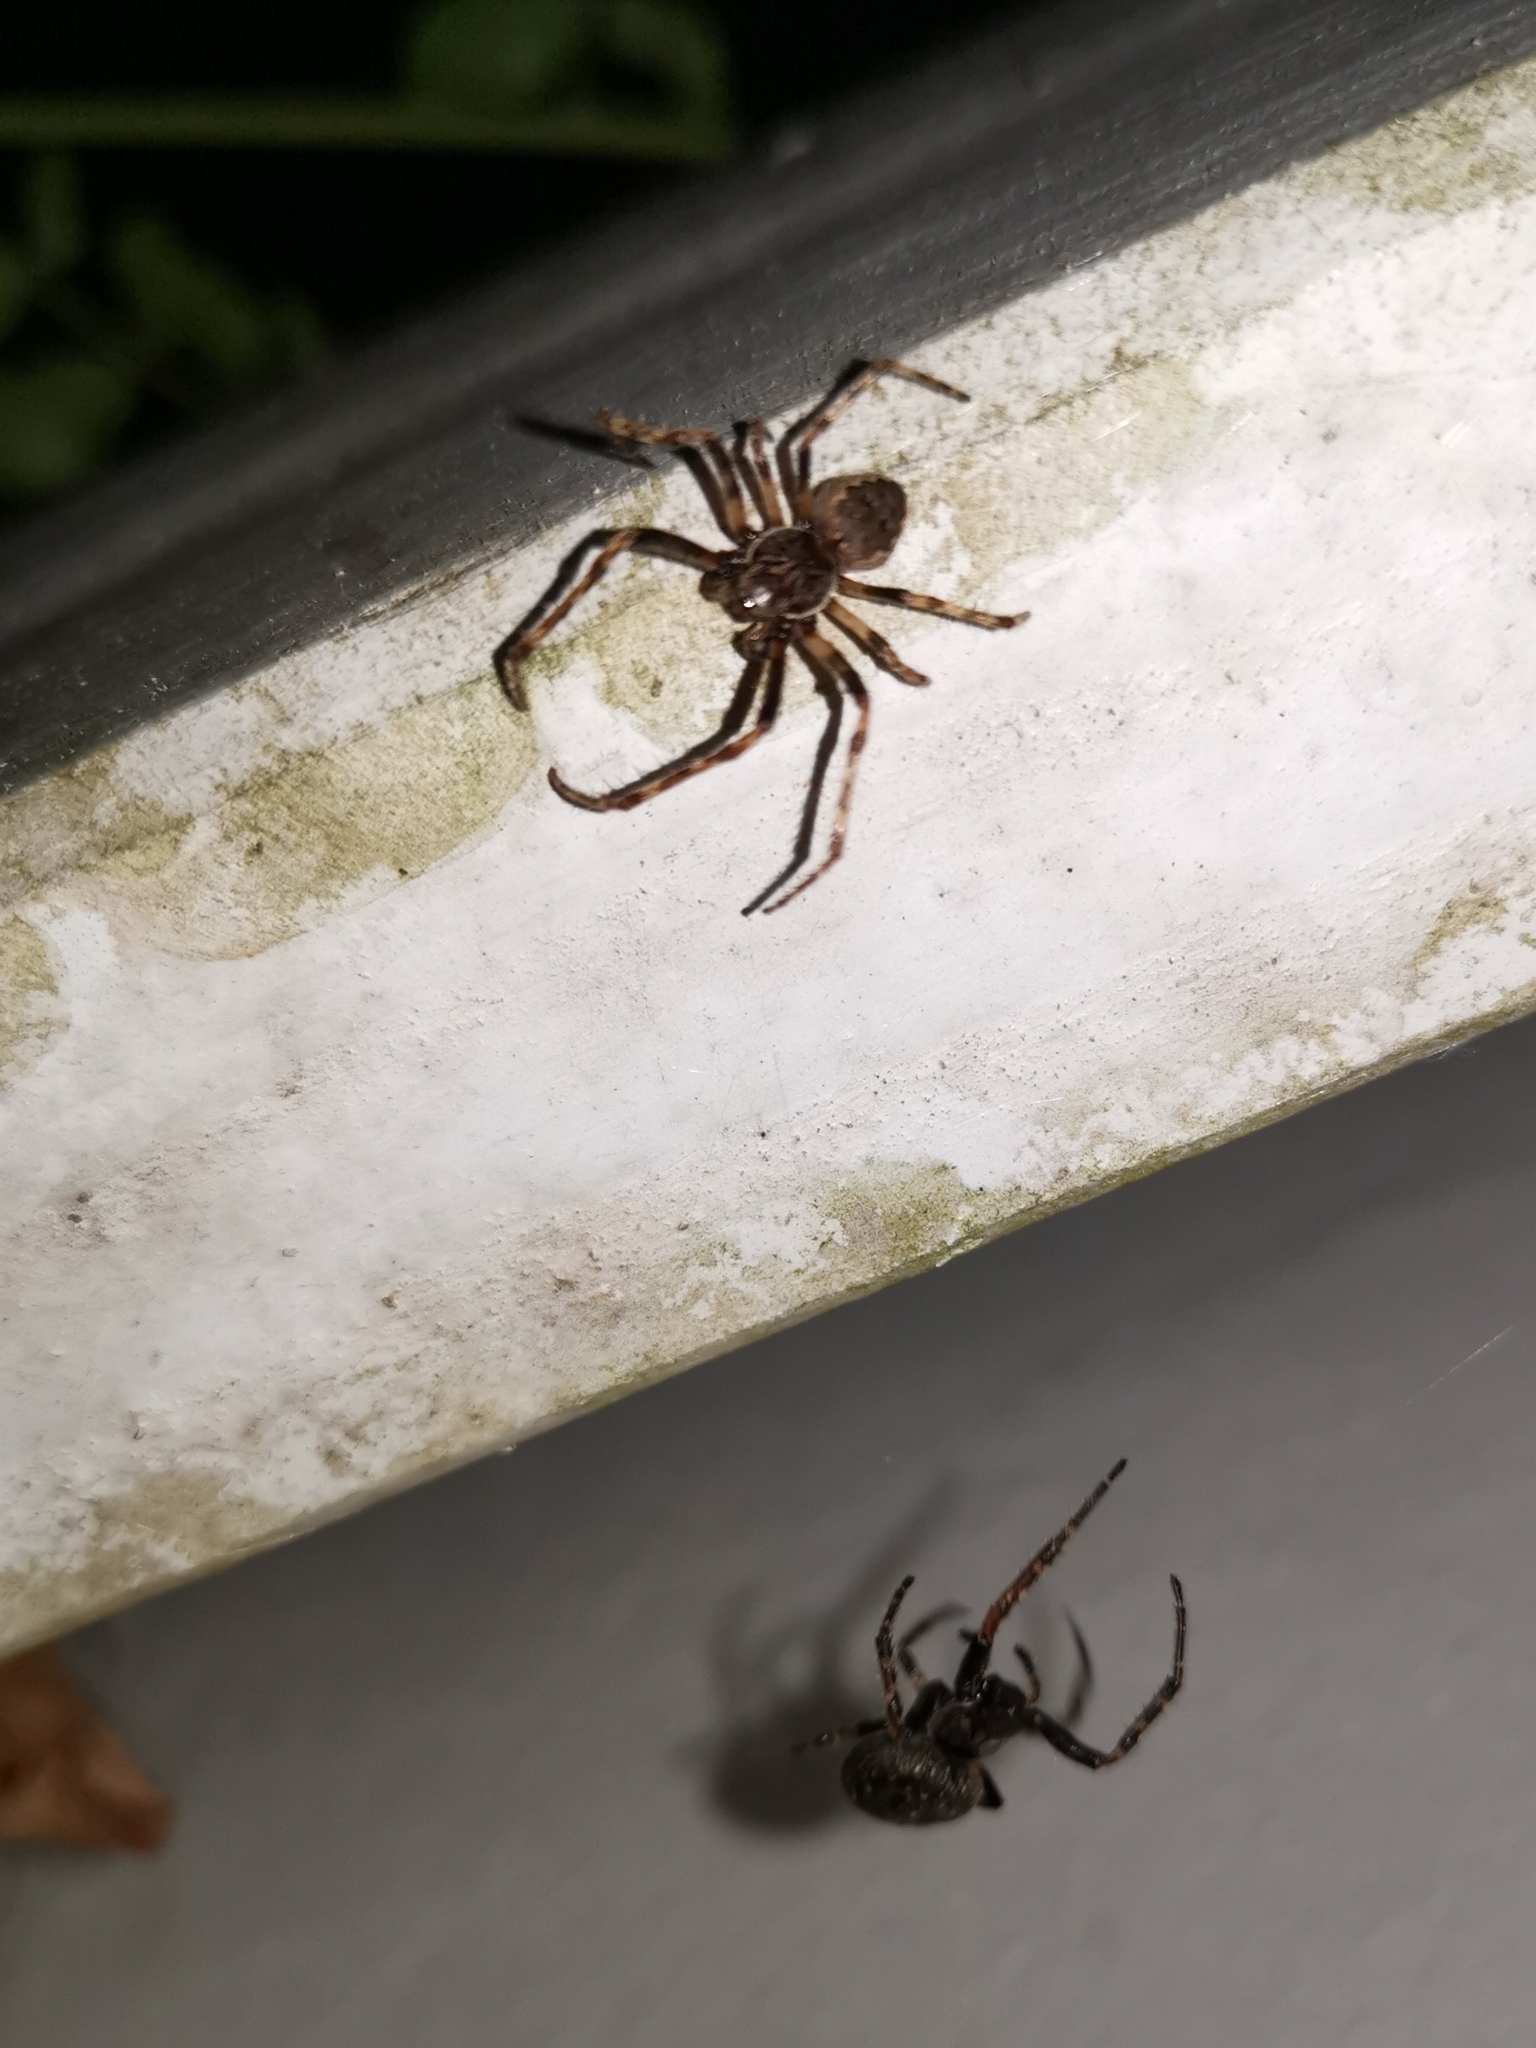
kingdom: Animalia
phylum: Arthropoda
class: Arachnida
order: Araneae
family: Araneidae
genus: Nuctenea
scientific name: Nuctenea umbratica
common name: Toad spider
